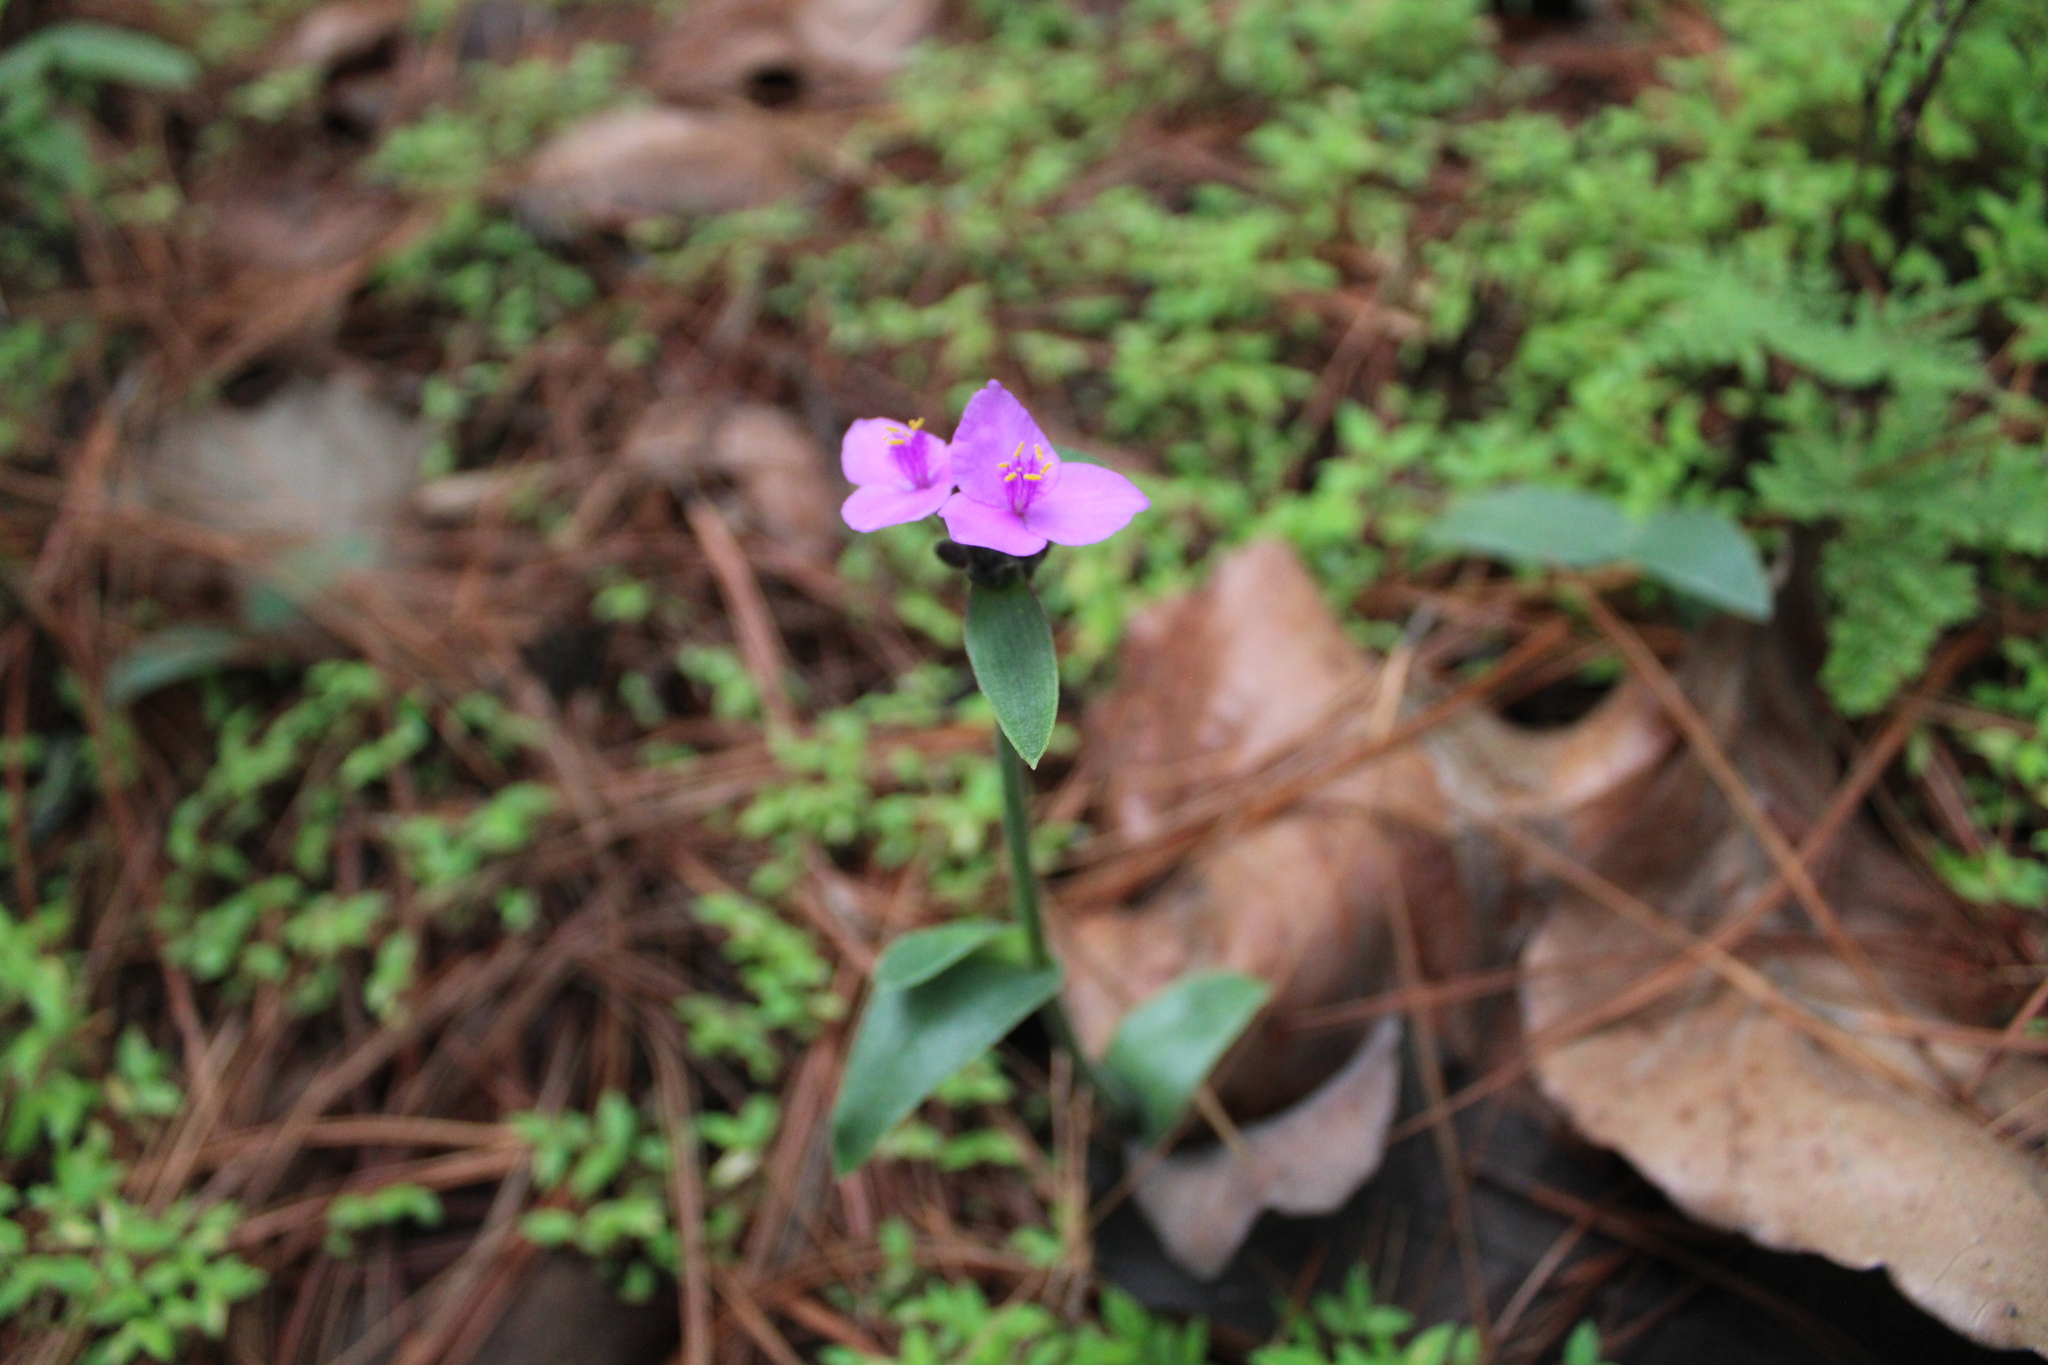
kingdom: Plantae
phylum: Tracheophyta
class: Liliopsida
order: Commelinales
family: Commelinaceae
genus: Tradescantia
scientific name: Tradescantia crassifolia
